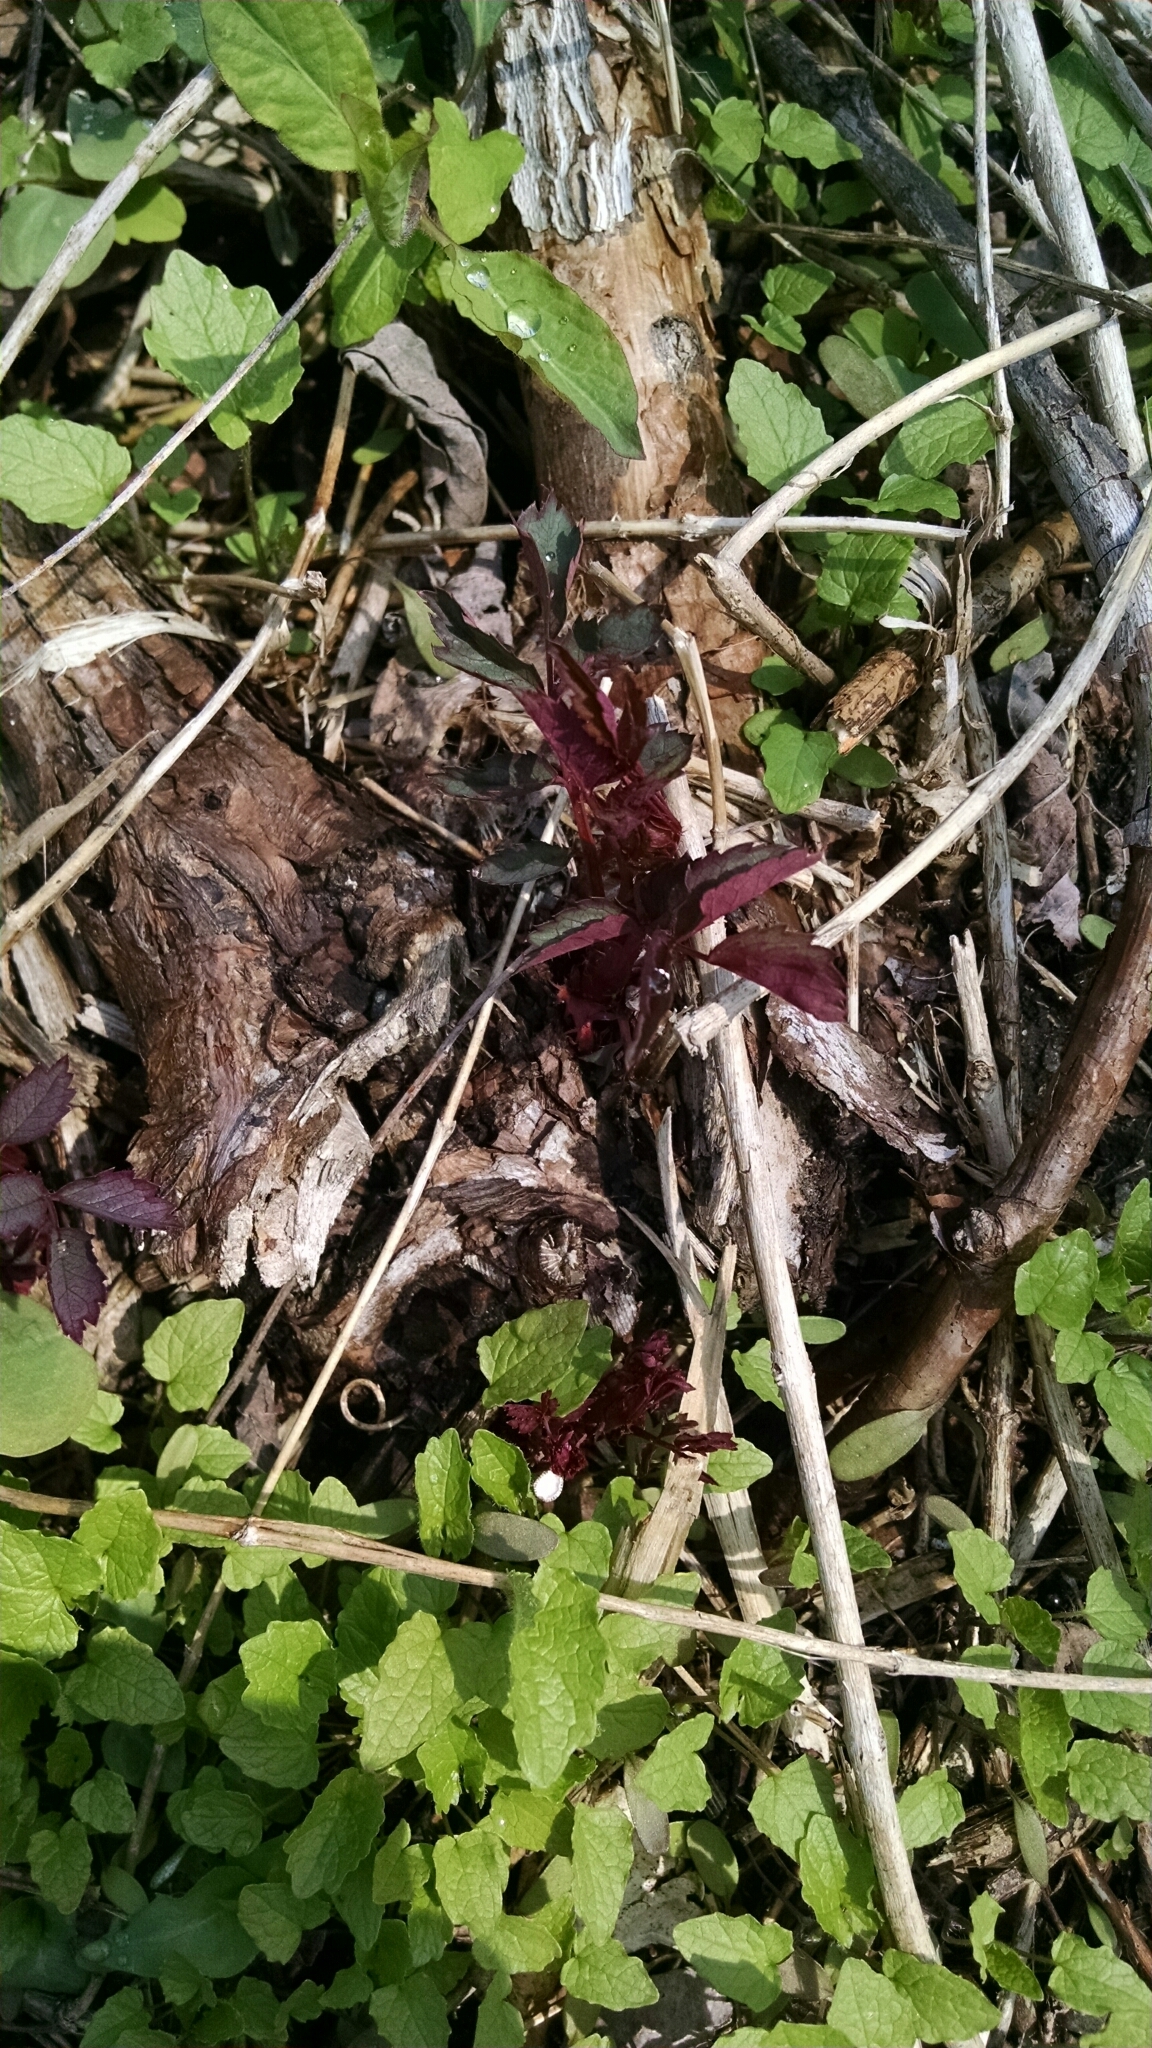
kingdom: Plantae
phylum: Tracheophyta
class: Magnoliopsida
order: Rosales
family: Rosaceae
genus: Rosa
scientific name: Rosa multiflora
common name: Multiflora rose
